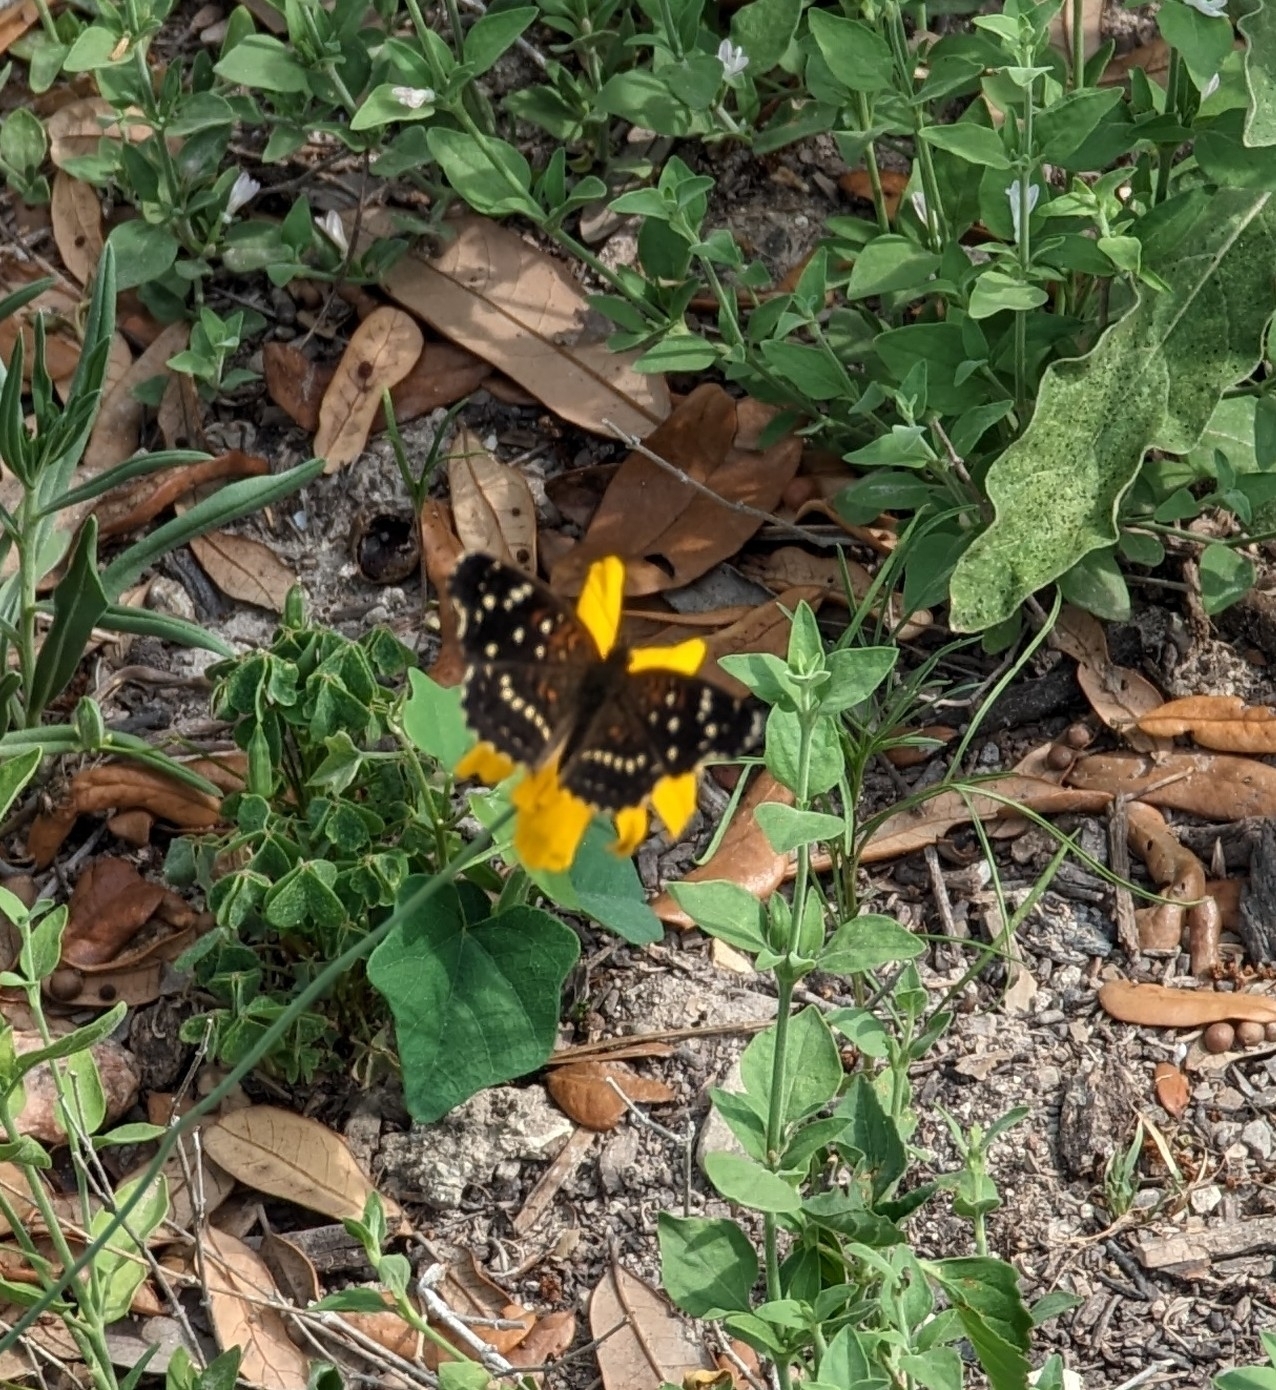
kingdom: Animalia
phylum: Arthropoda
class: Insecta
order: Lepidoptera
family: Nymphalidae
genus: Anthanassa
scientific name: Anthanassa texana
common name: Texan crescent
